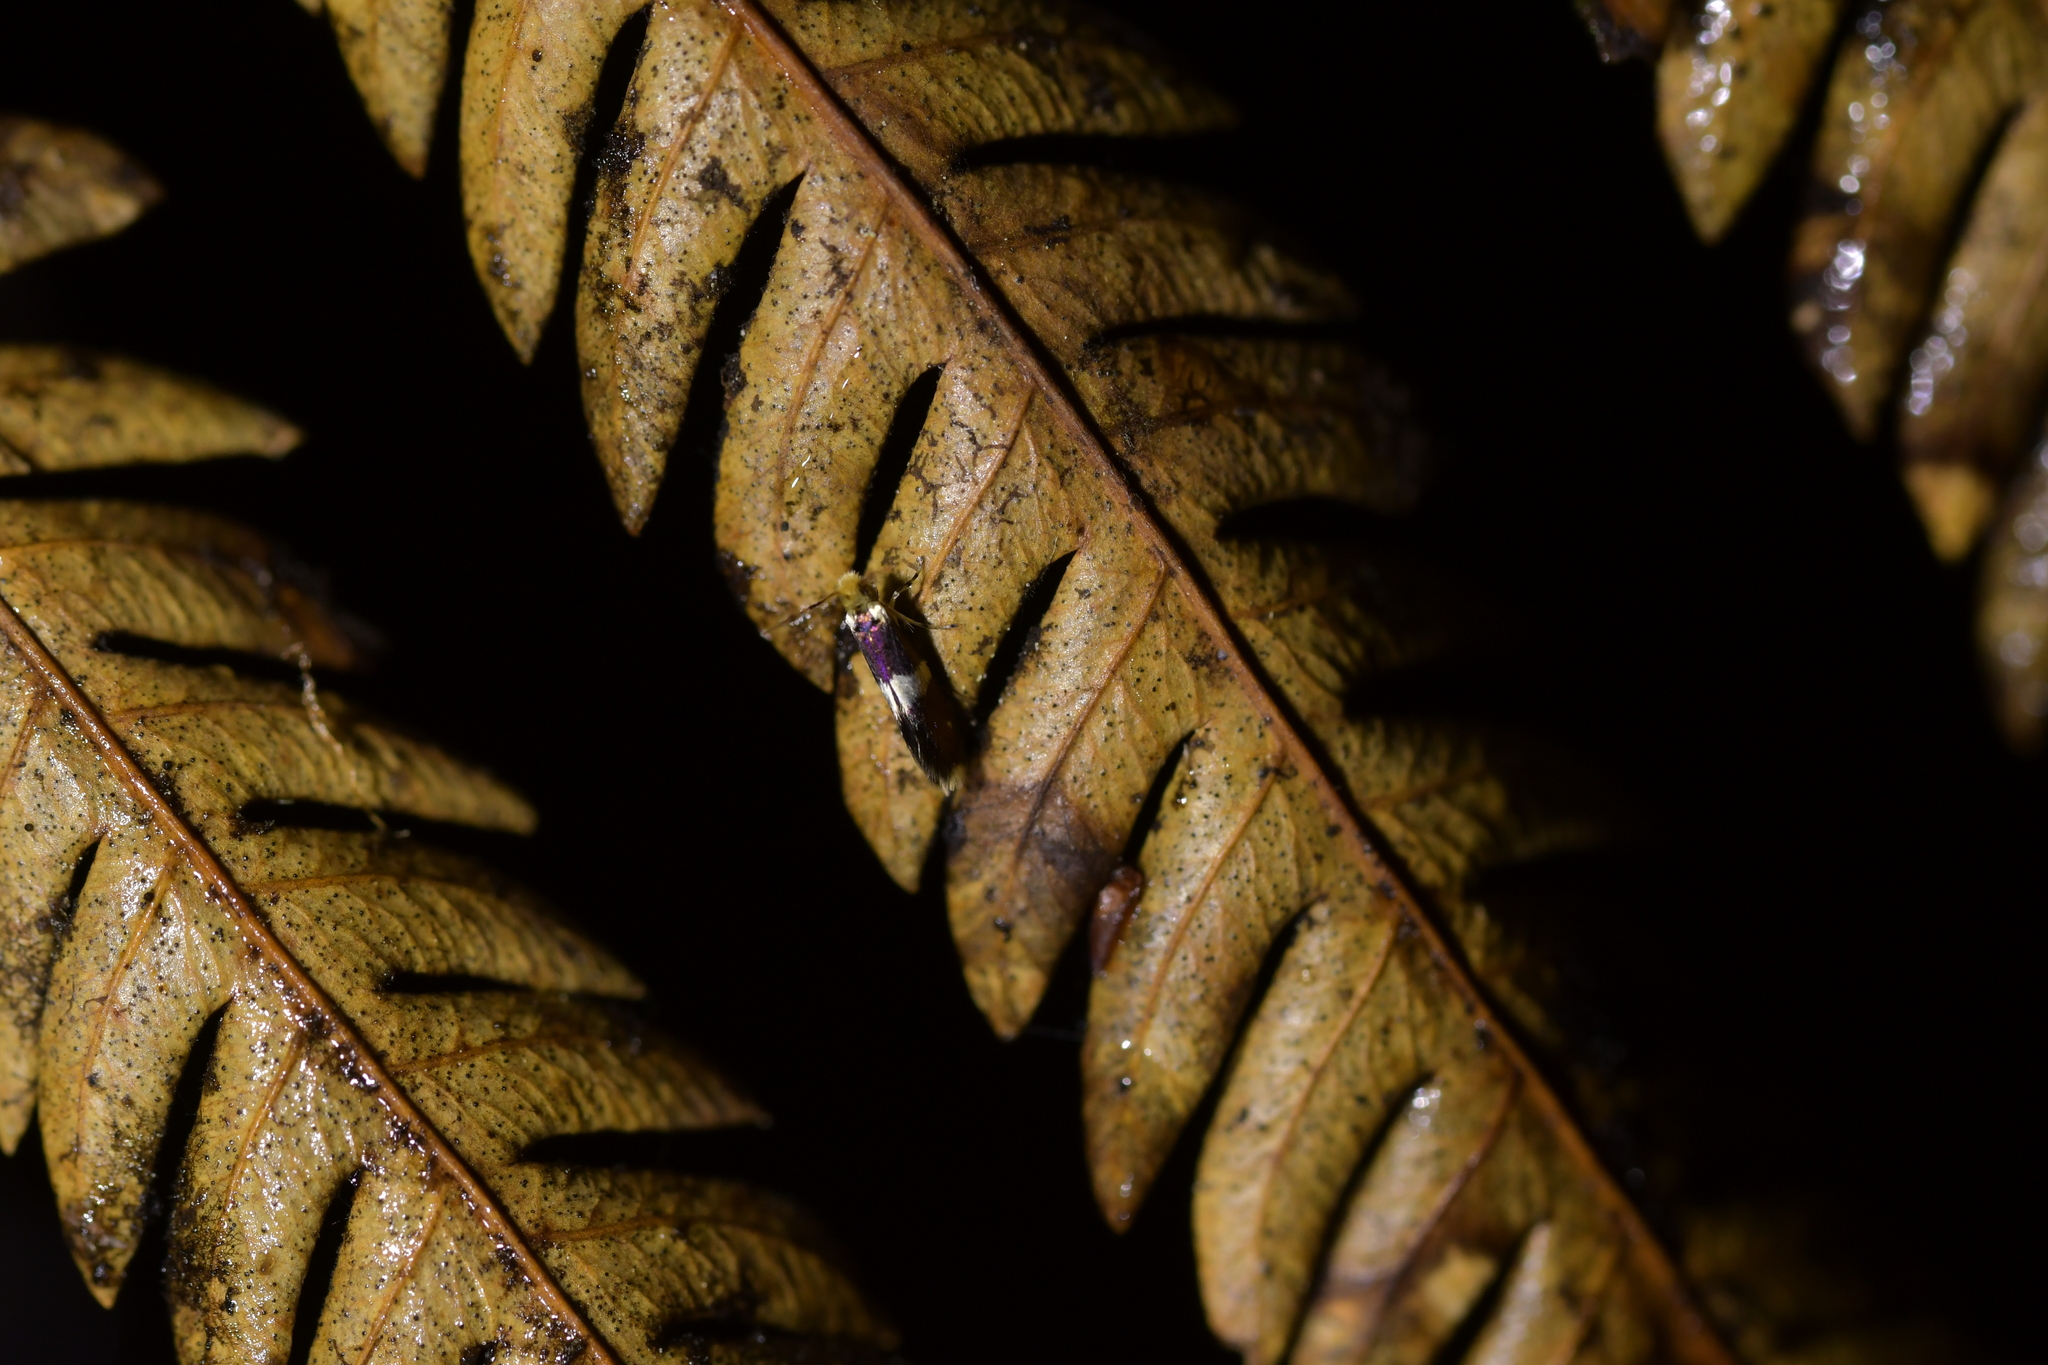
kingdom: Animalia
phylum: Arthropoda
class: Insecta
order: Lepidoptera
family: Micropterigidae
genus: Zealandopterix
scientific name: Zealandopterix zonodoxa
